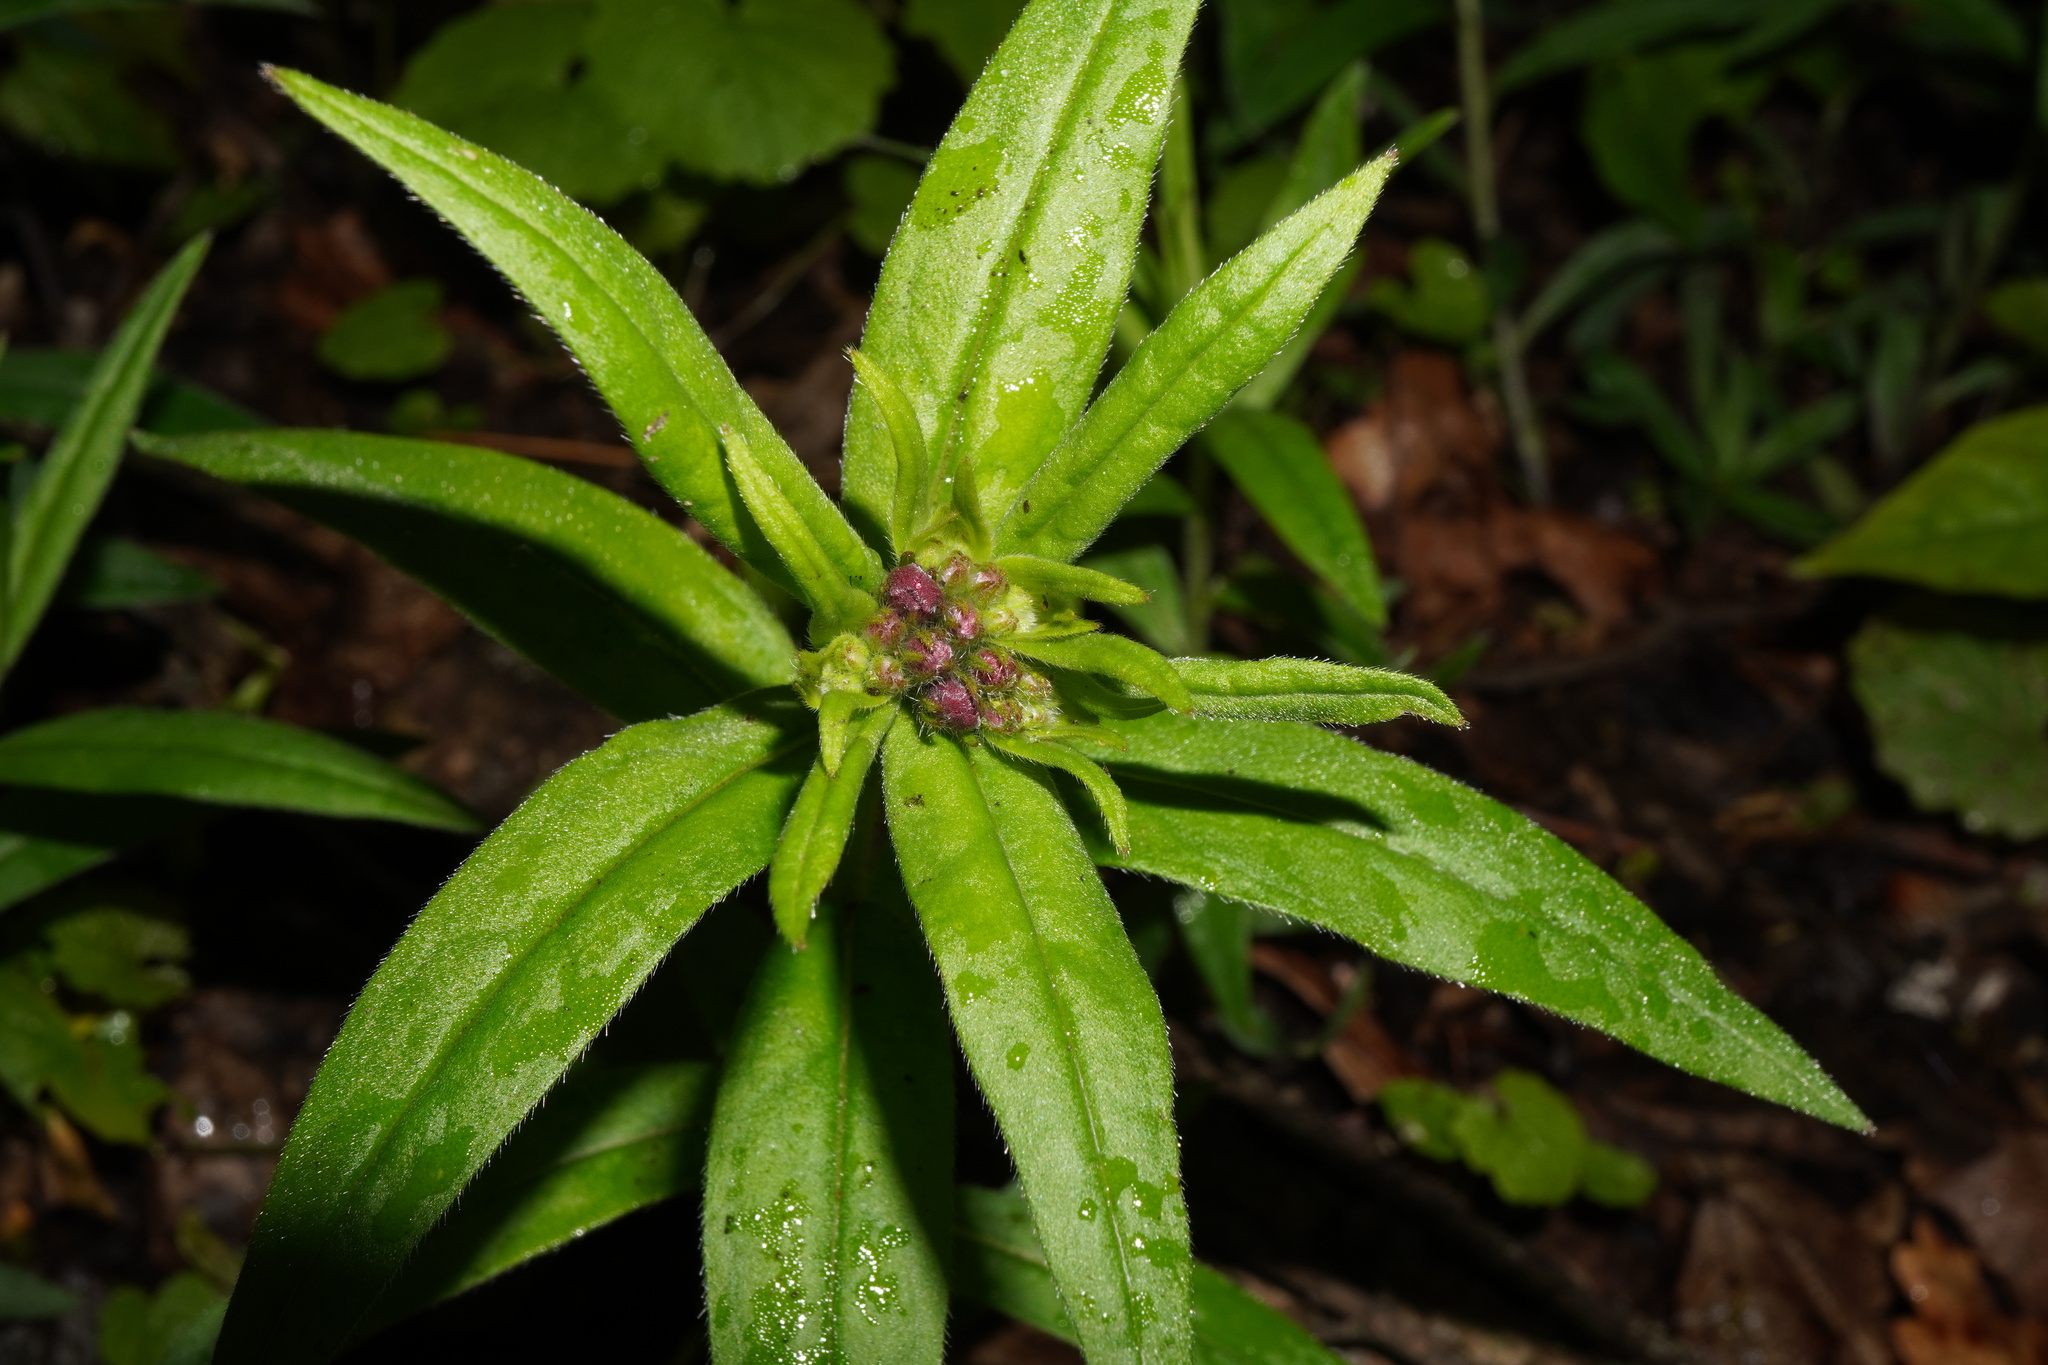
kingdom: Plantae
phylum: Tracheophyta
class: Magnoliopsida
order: Boraginales
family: Boraginaceae
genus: Aegonychon
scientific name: Aegonychon purpurocaeruleum
